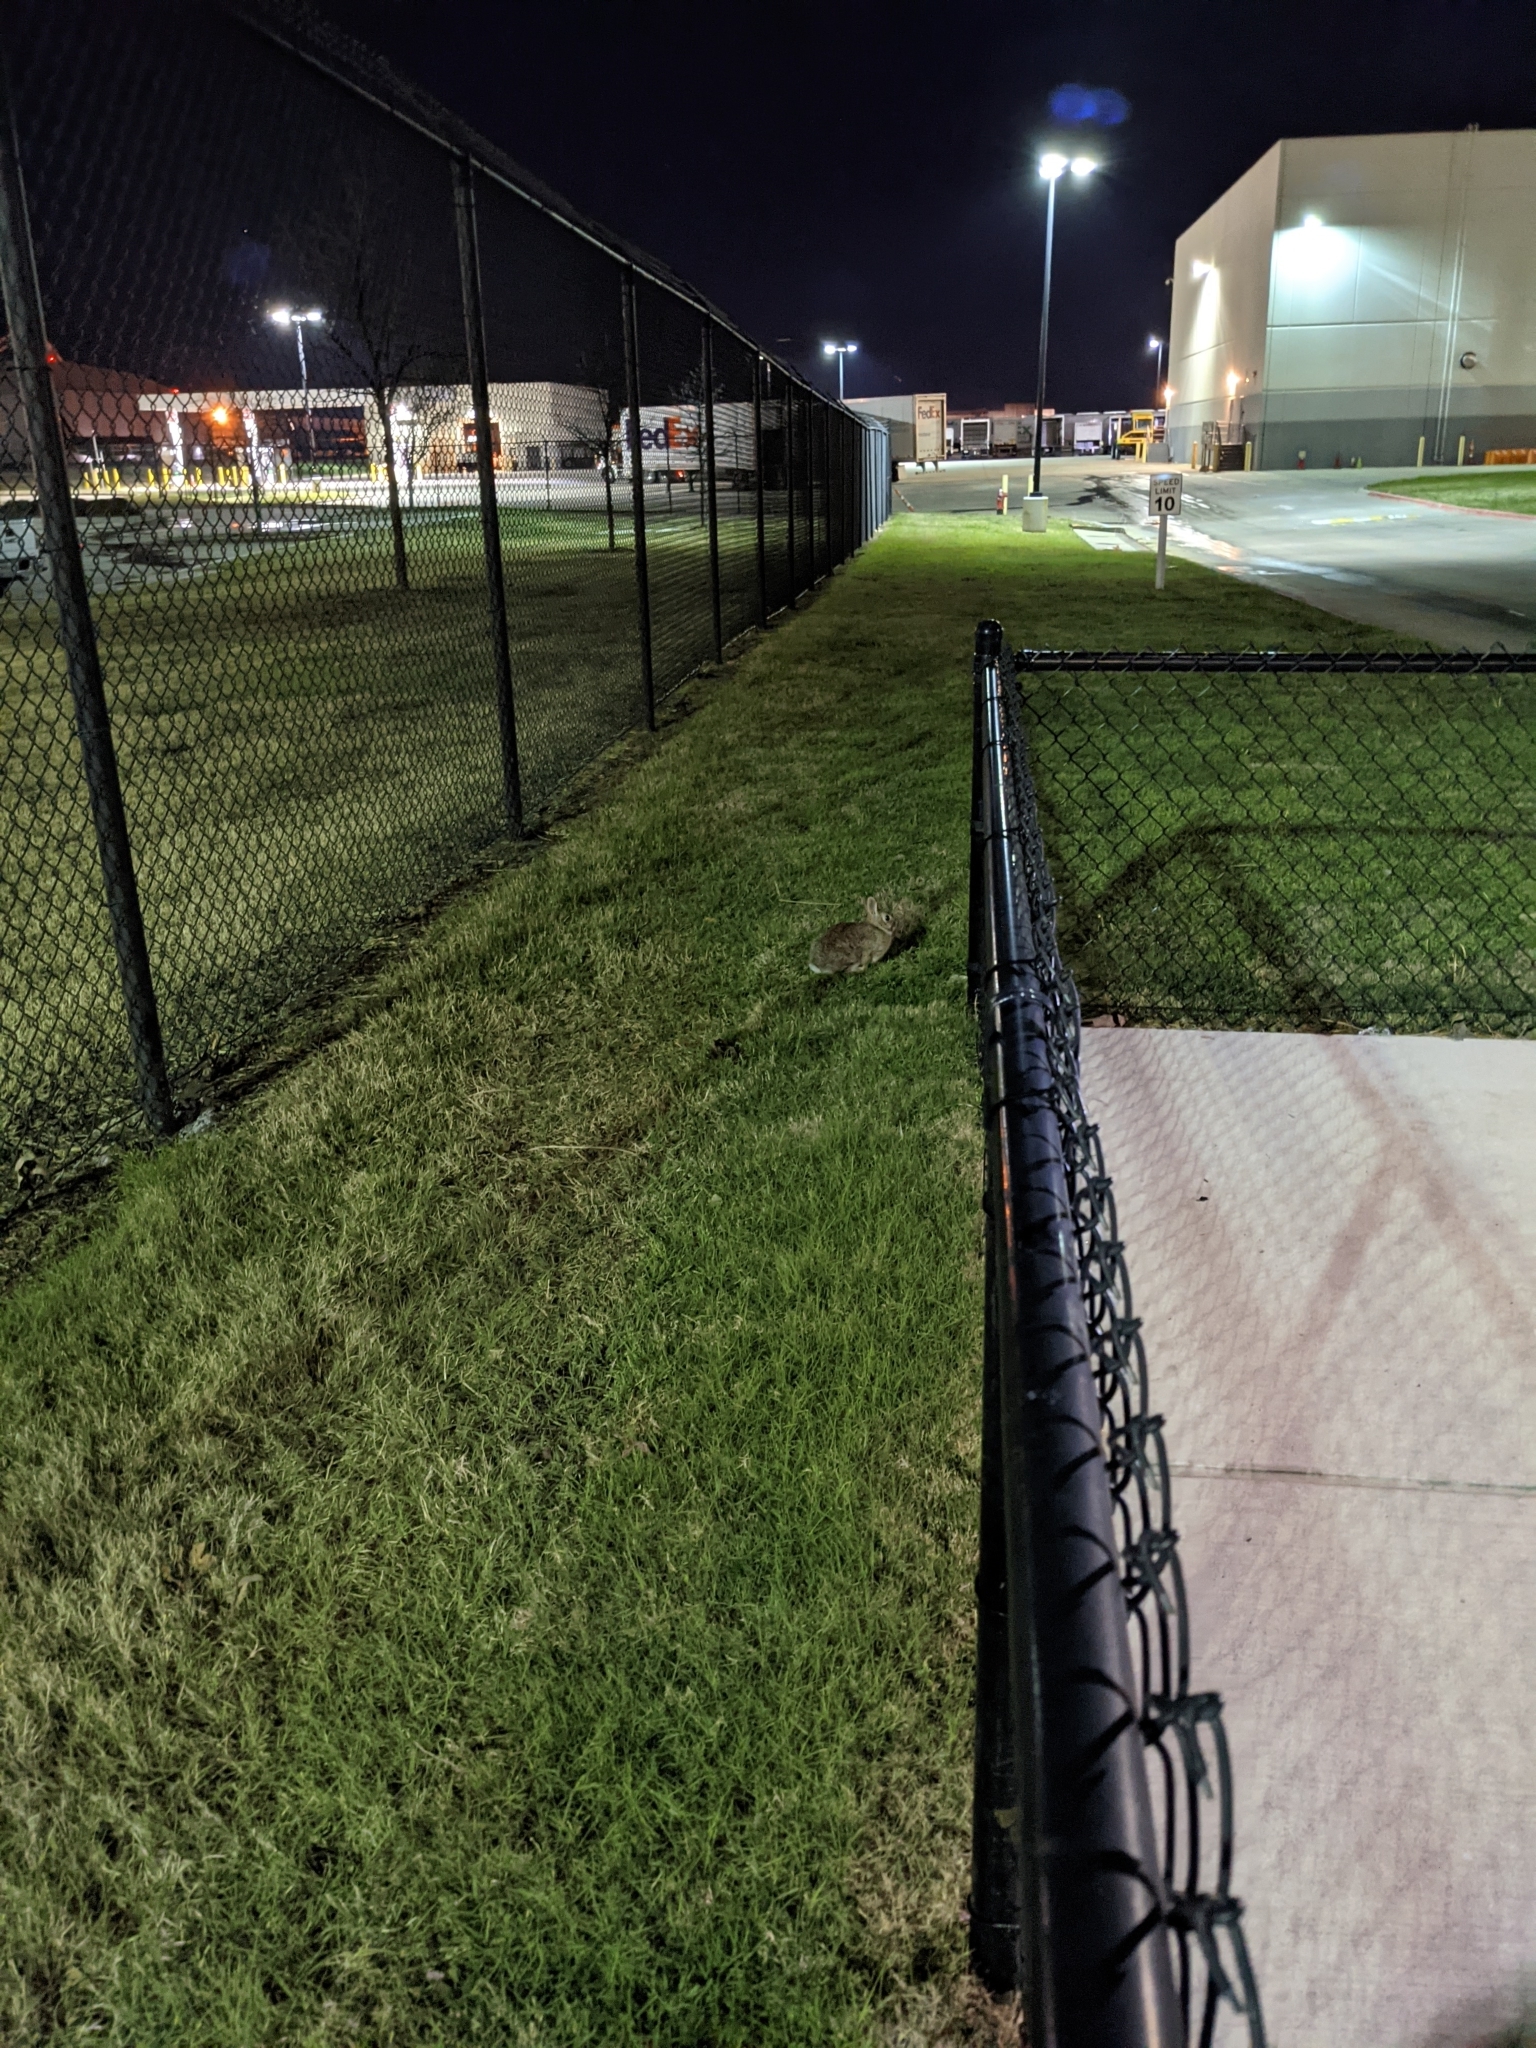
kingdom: Animalia
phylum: Chordata
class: Mammalia
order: Lagomorpha
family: Leporidae
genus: Sylvilagus
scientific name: Sylvilagus floridanus
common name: Eastern cottontail
